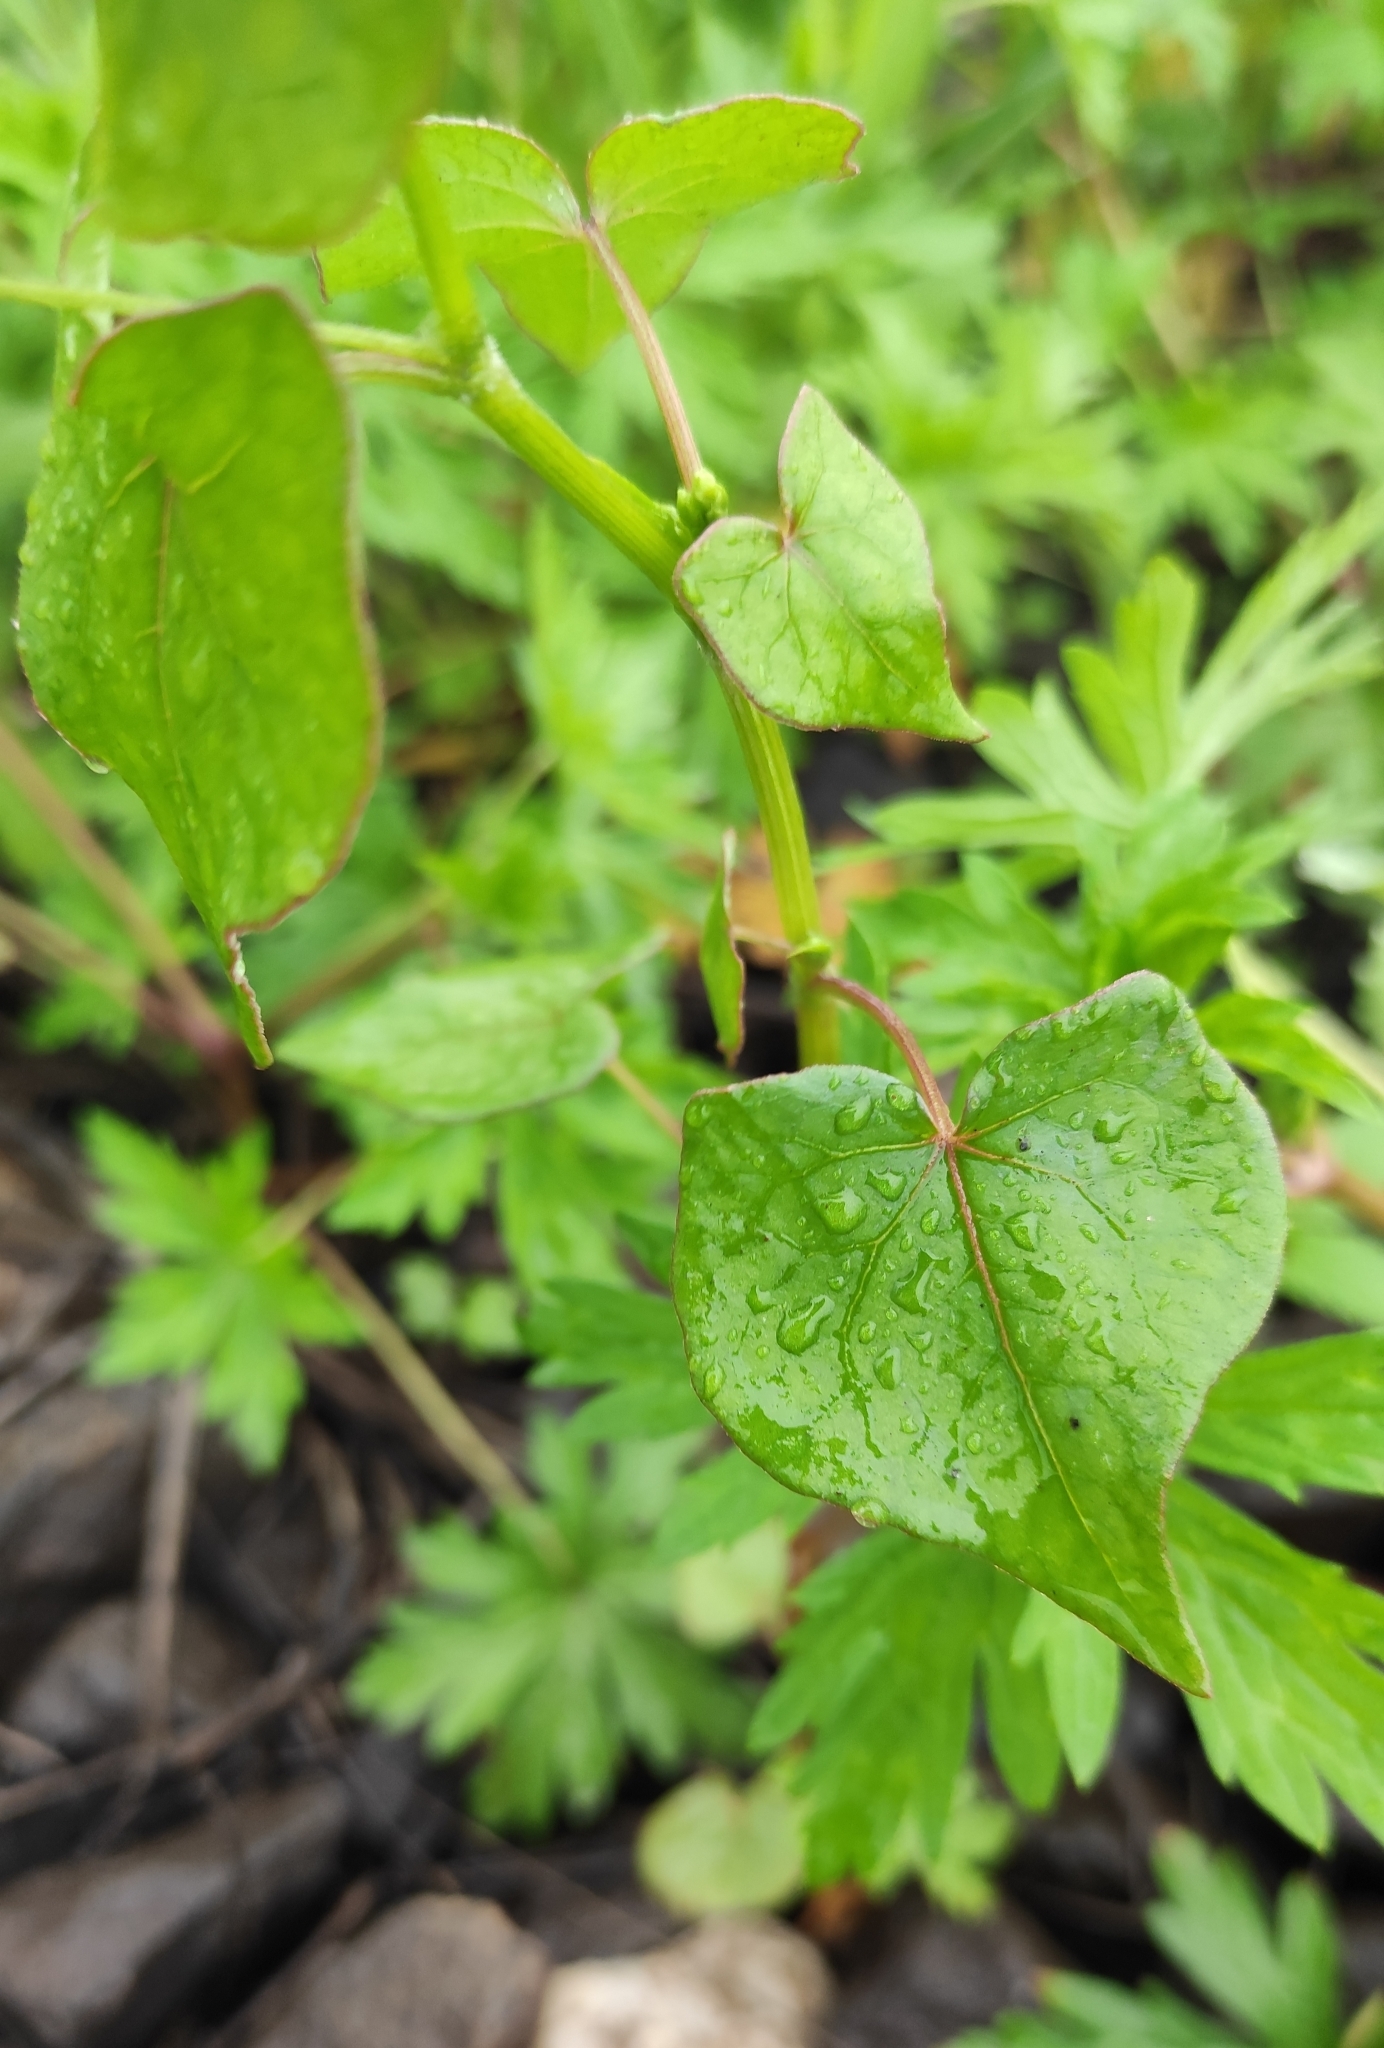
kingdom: Plantae
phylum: Tracheophyta
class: Magnoliopsida
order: Caryophyllales
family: Polygonaceae
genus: Fagopyrum
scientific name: Fagopyrum esculentum
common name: Buckwheat
